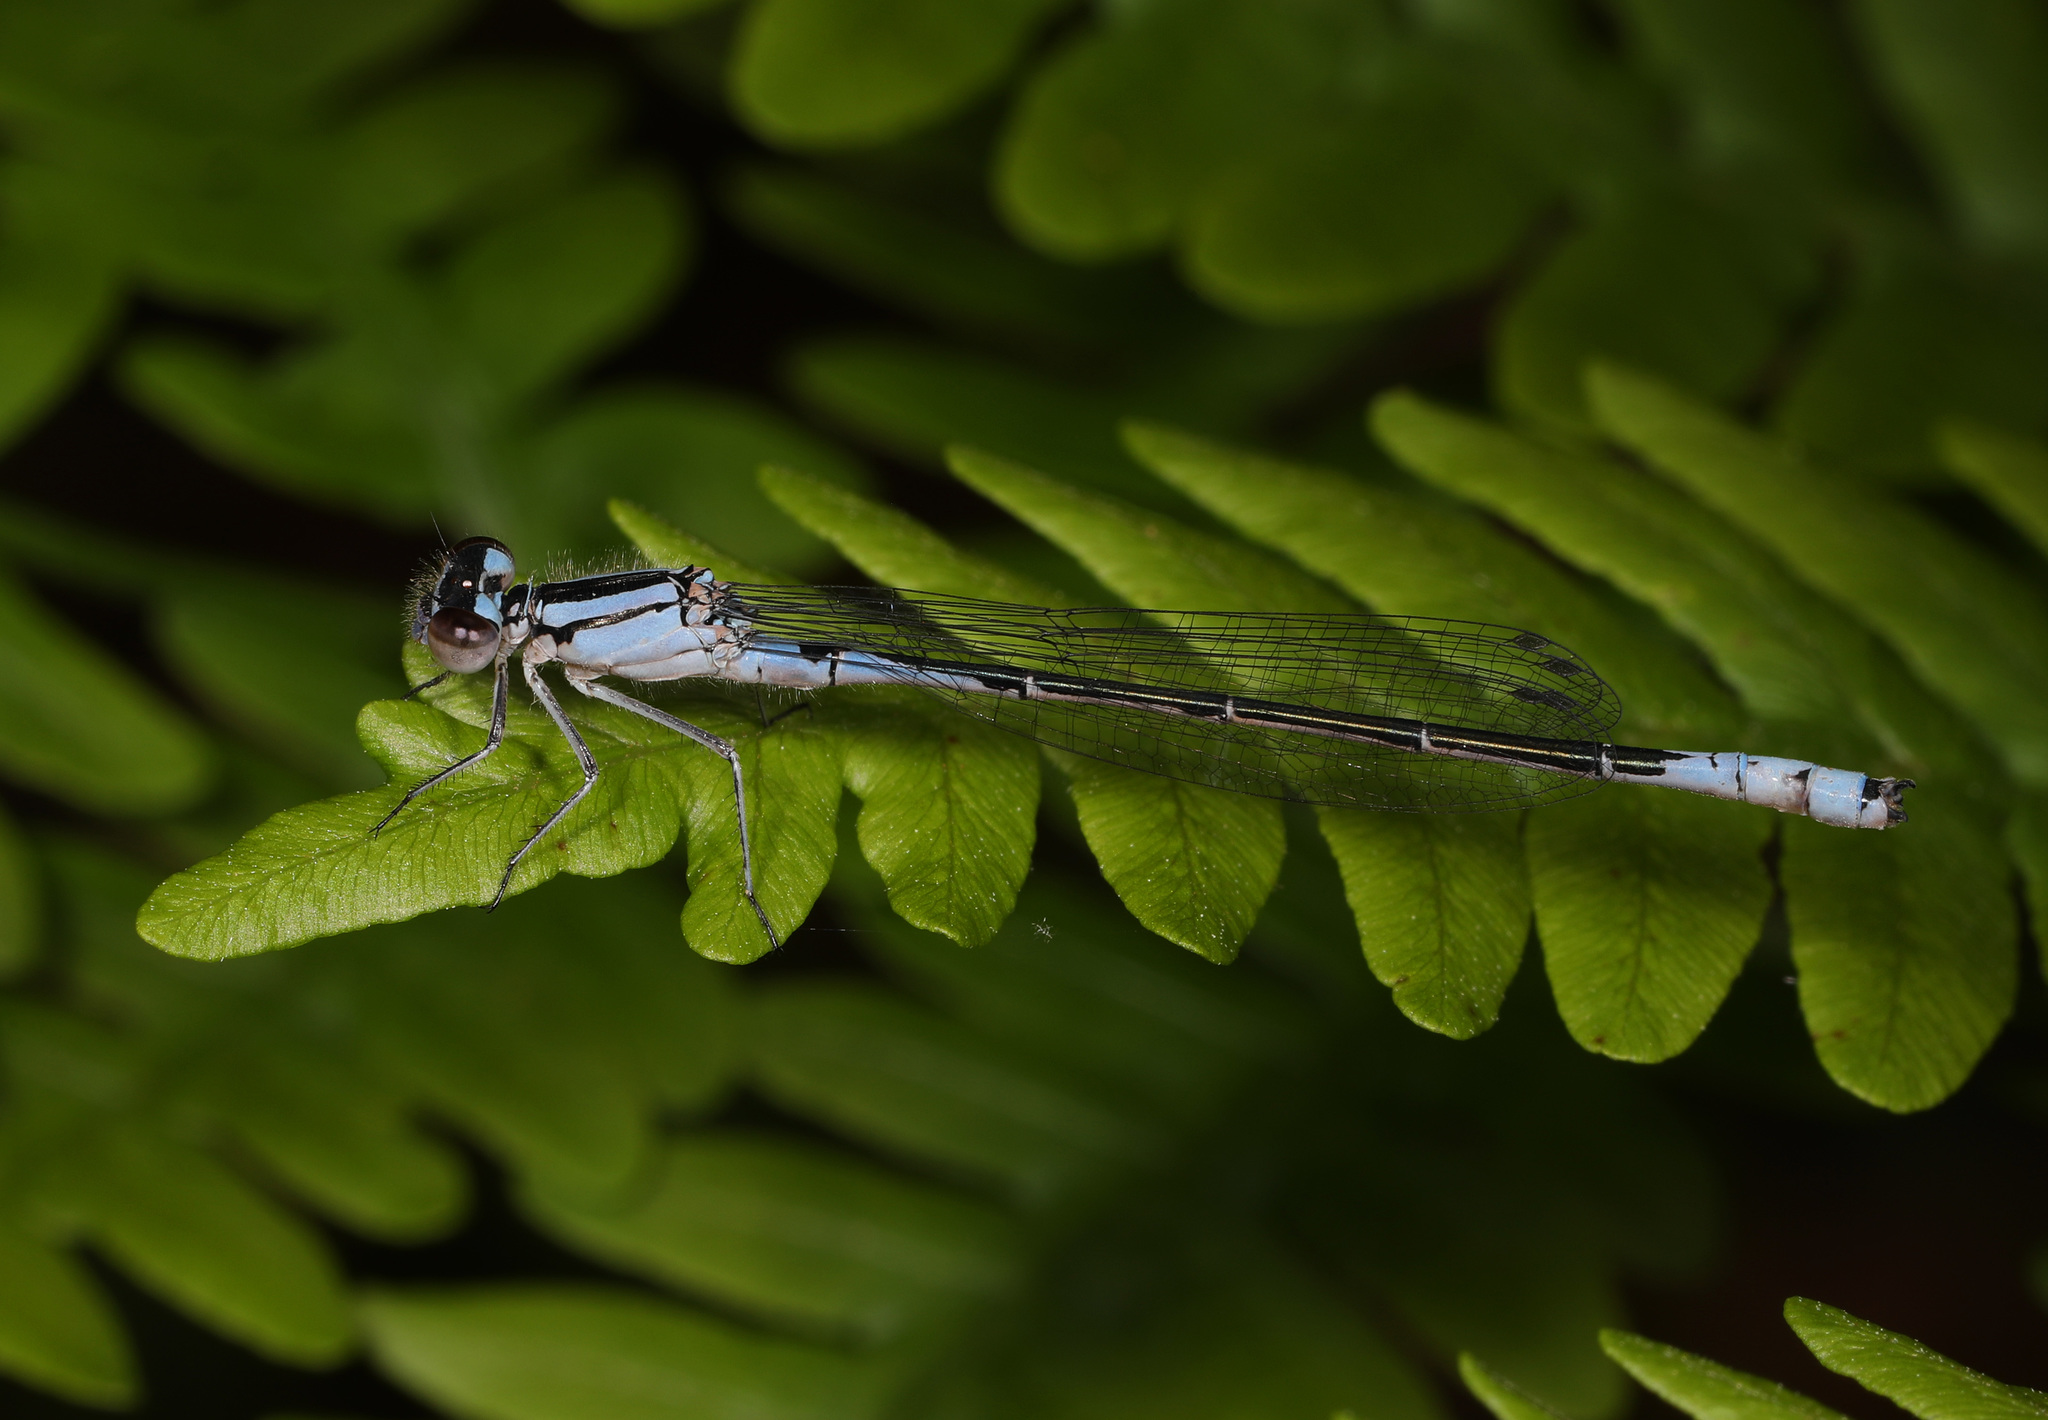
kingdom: Animalia
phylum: Arthropoda
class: Insecta
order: Odonata
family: Coenagrionidae
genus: Enallagma
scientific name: Enallagma aspersum
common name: Azure bluet
